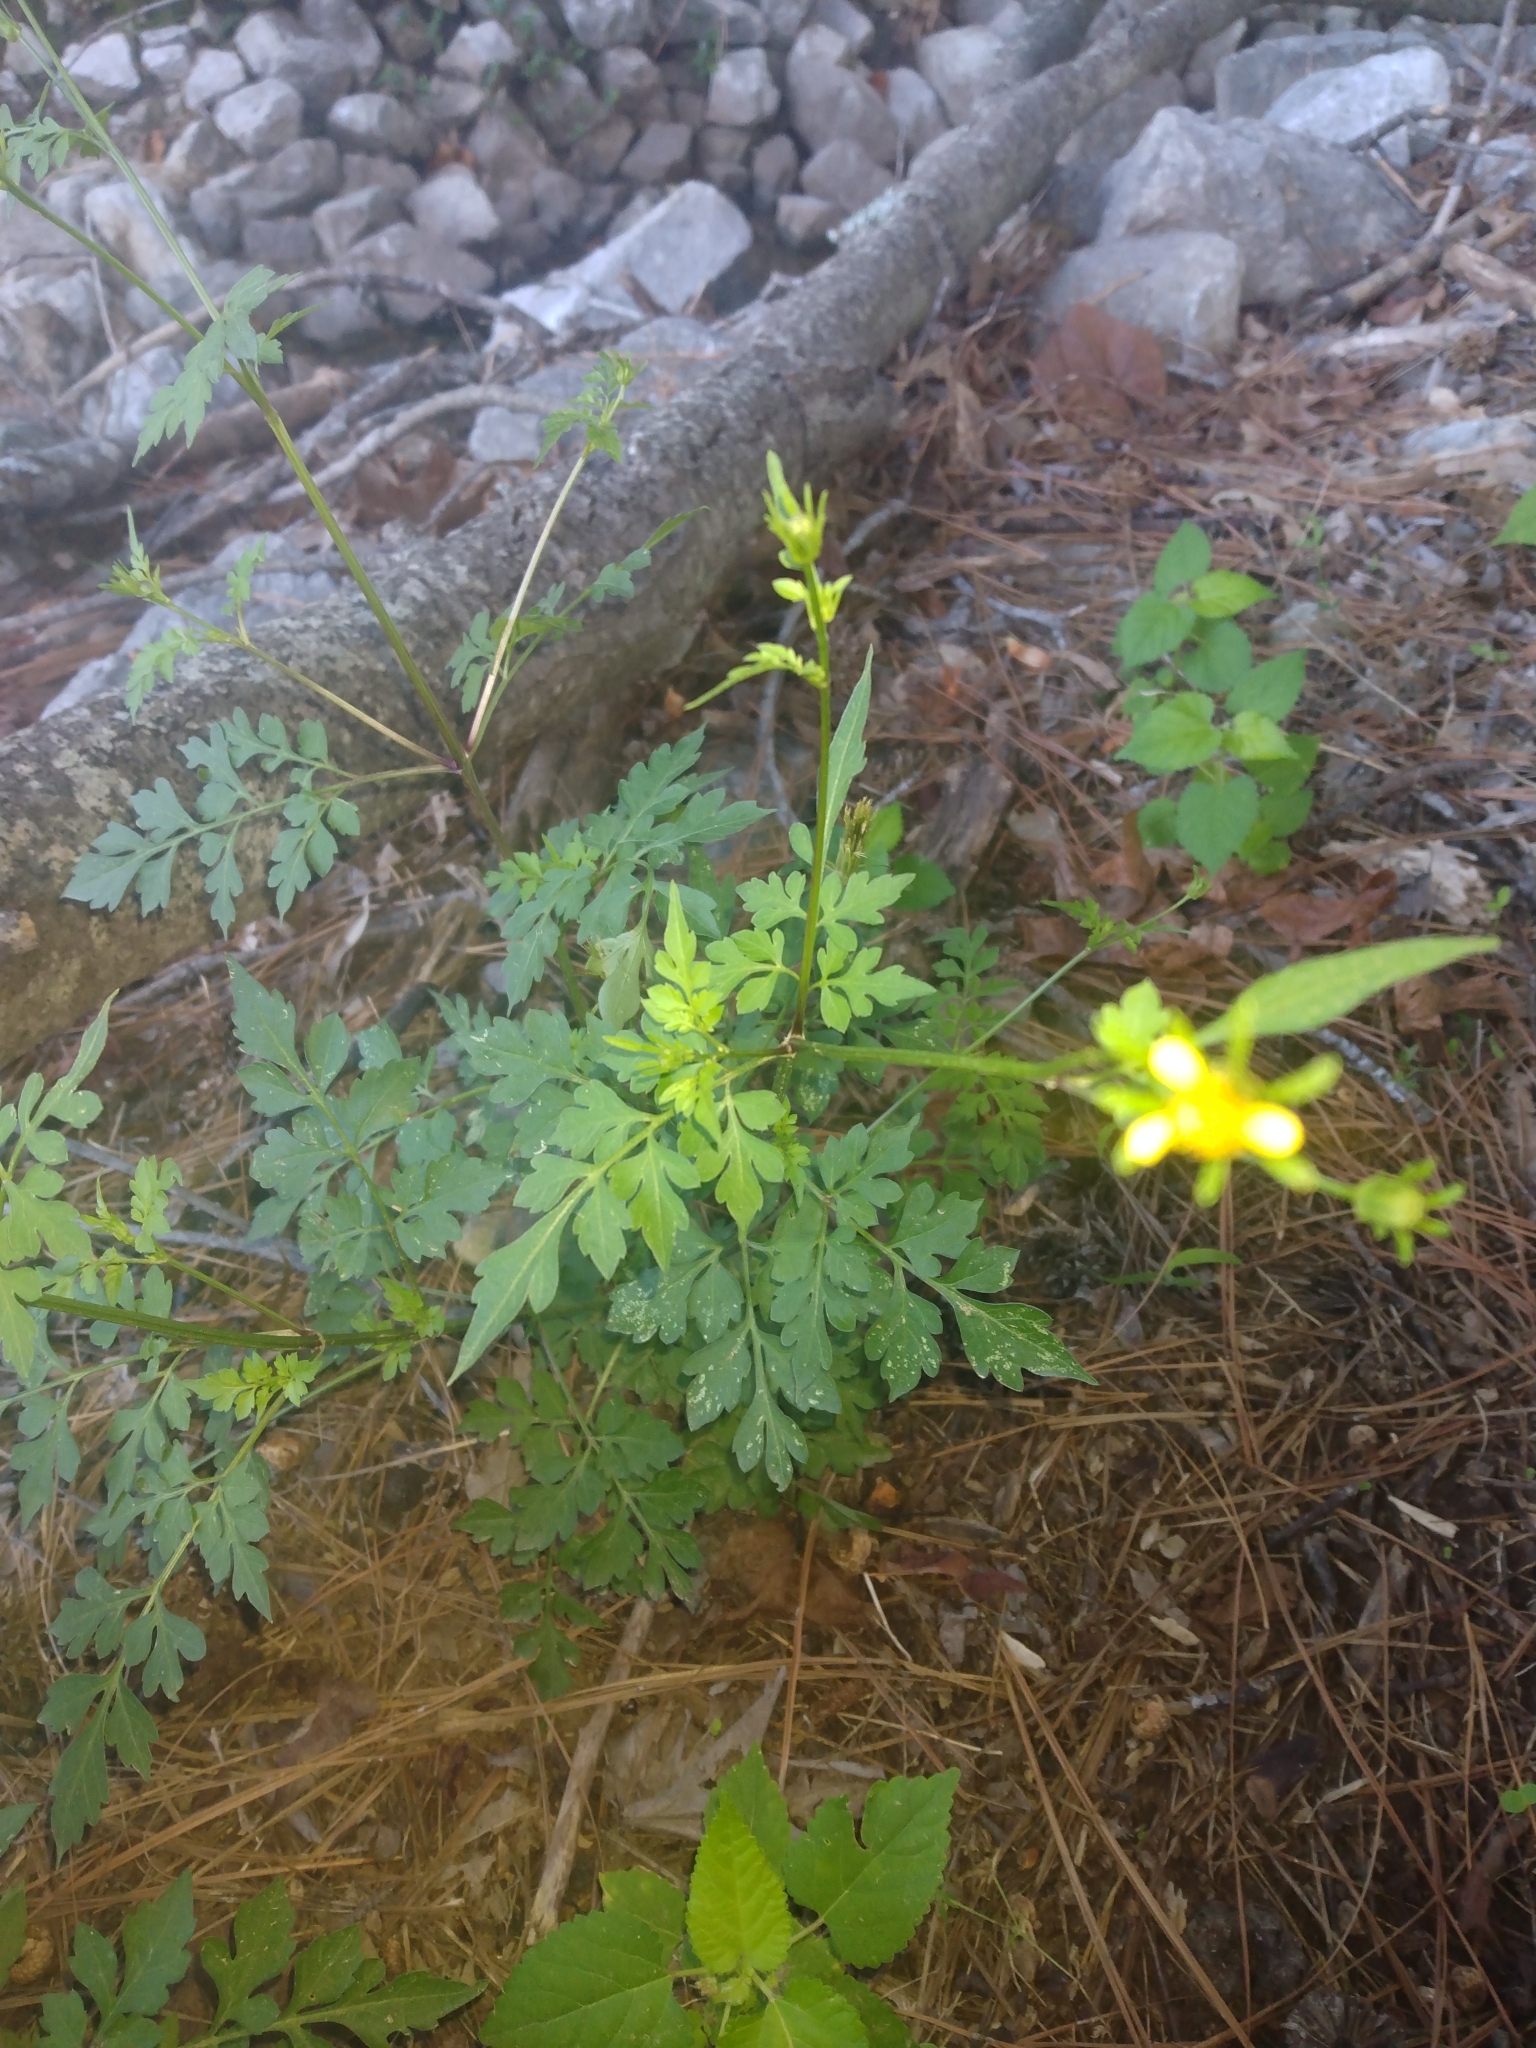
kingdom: Plantae
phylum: Tracheophyta
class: Magnoliopsida
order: Asterales
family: Asteraceae
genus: Bidens
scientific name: Bidens bipinnata
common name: Spanish-needles
